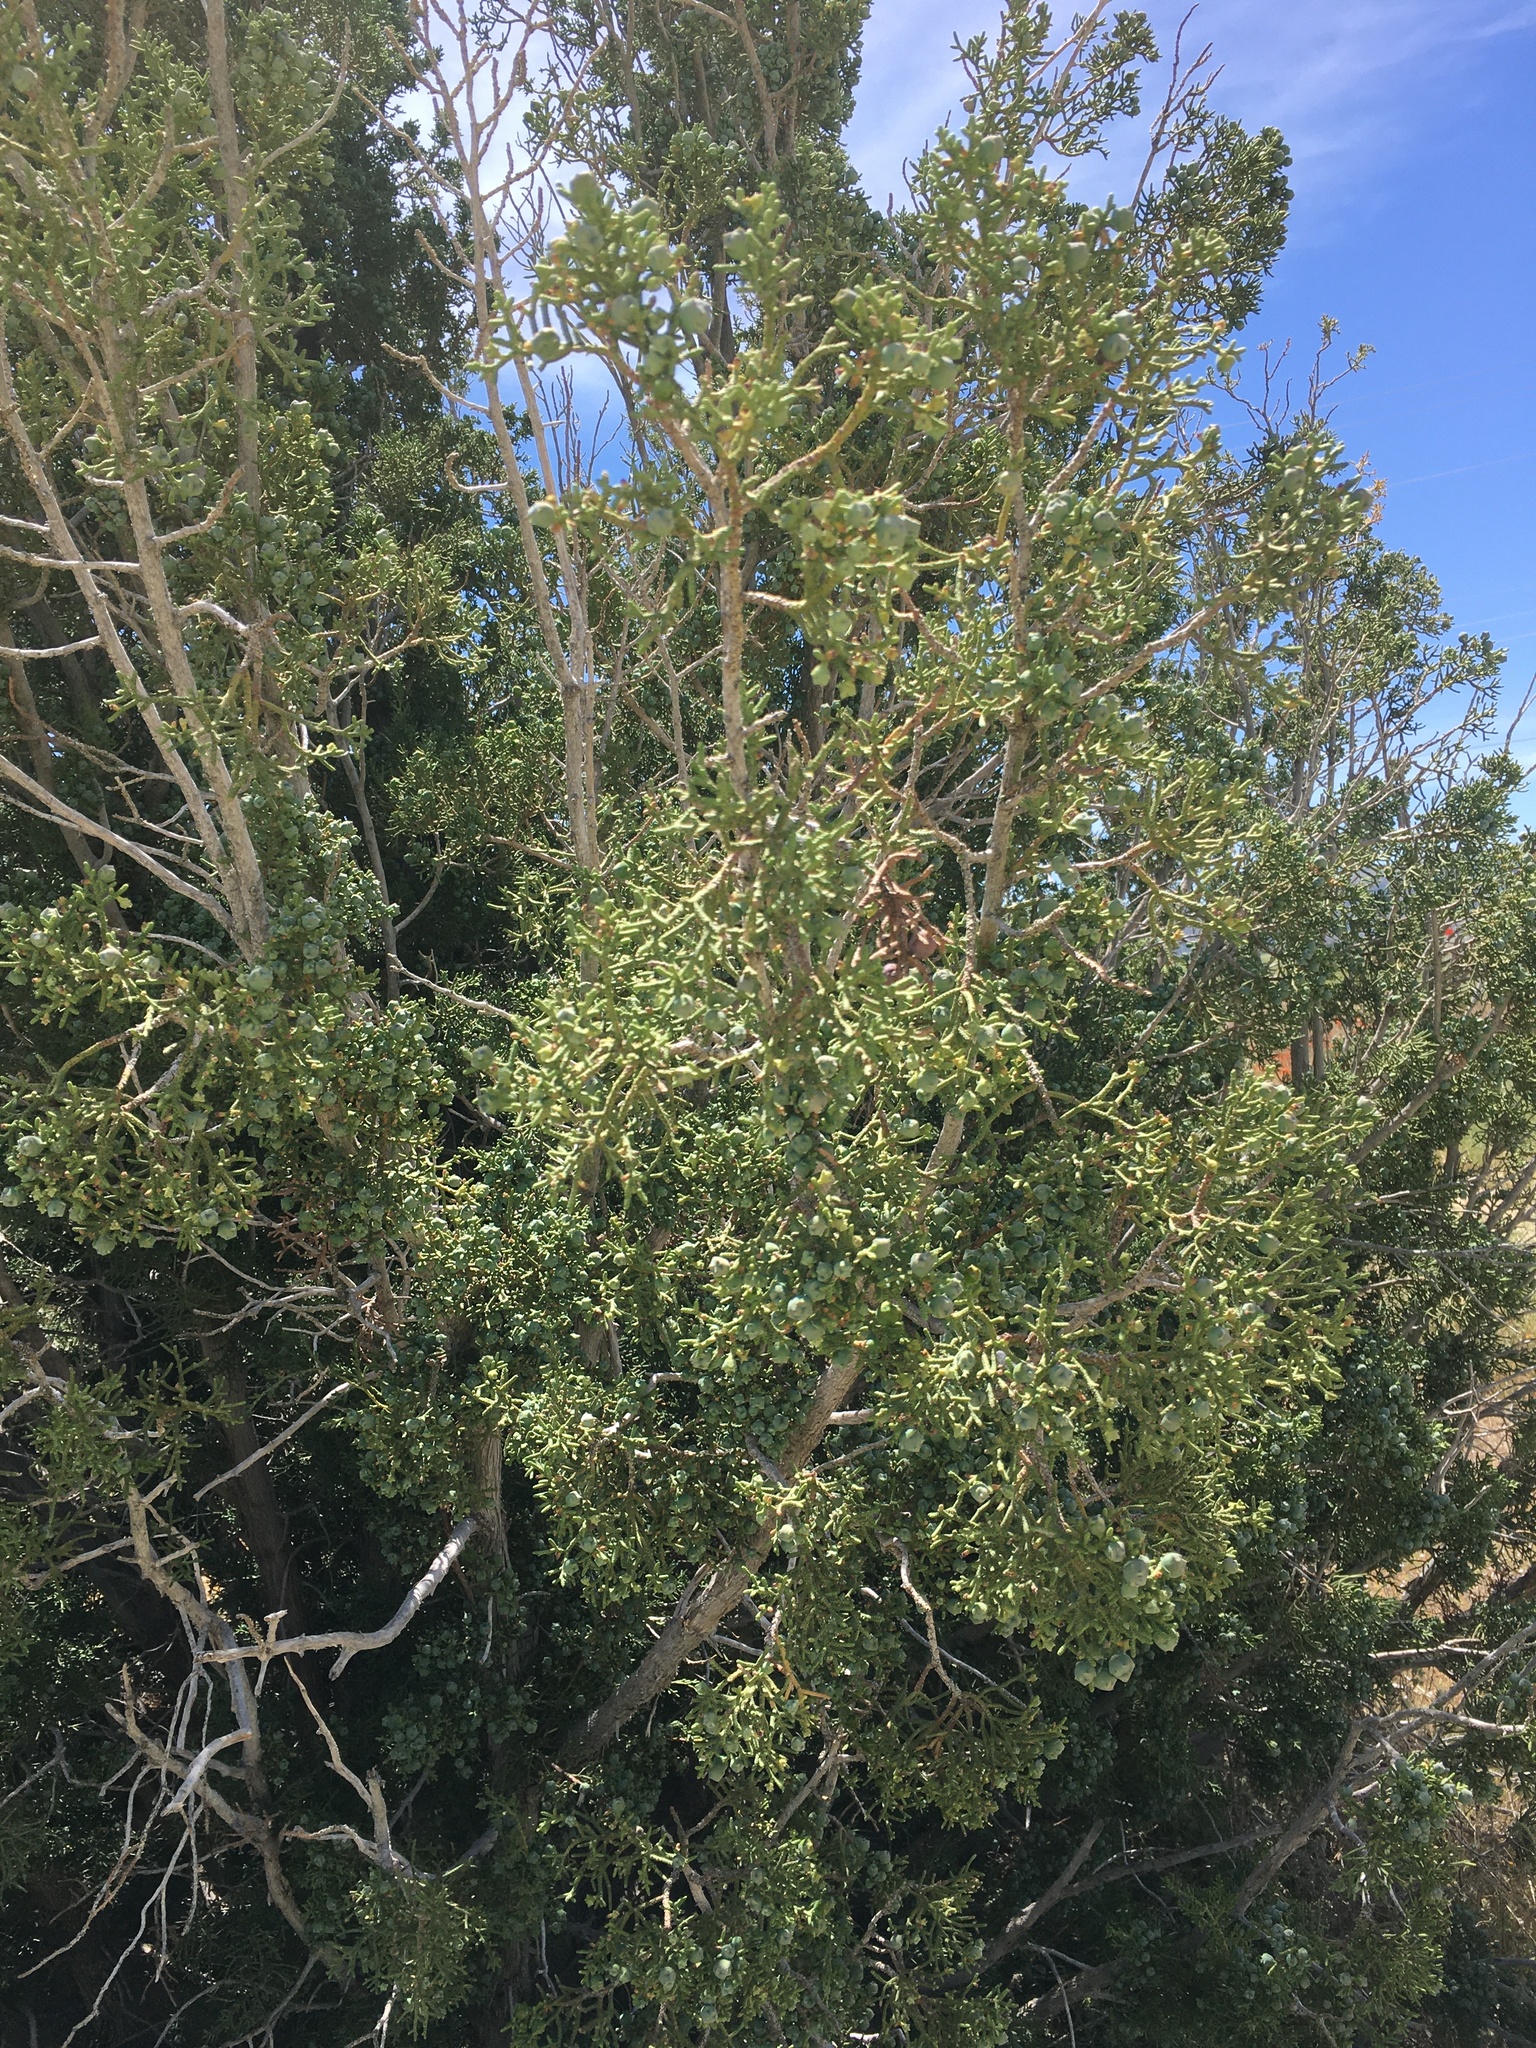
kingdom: Plantae
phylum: Tracheophyta
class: Pinopsida
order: Pinales
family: Cupressaceae
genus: Juniperus
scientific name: Juniperus californica
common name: California juniper
